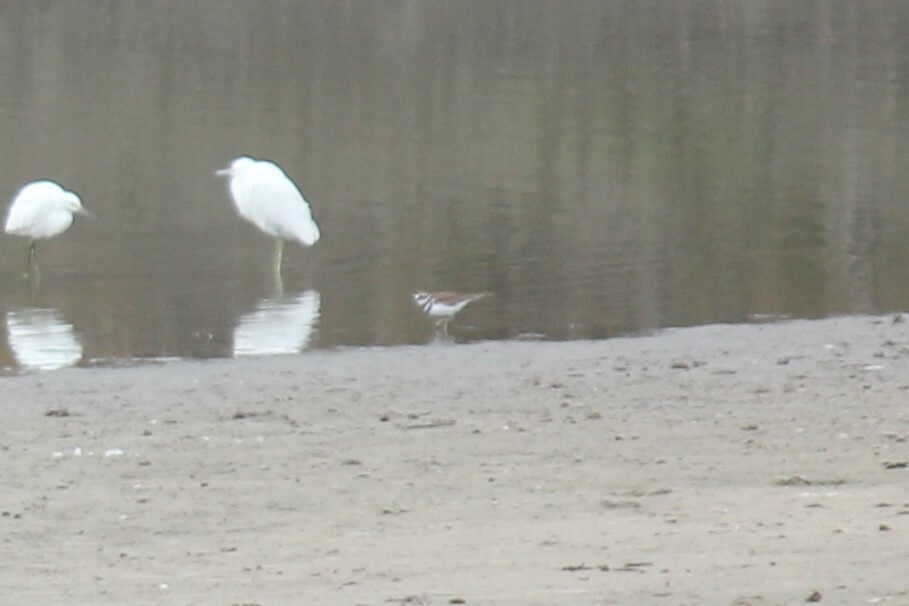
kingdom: Animalia
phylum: Chordata
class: Aves
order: Charadriiformes
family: Charadriidae
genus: Charadrius
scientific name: Charadrius vociferus
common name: Killdeer
